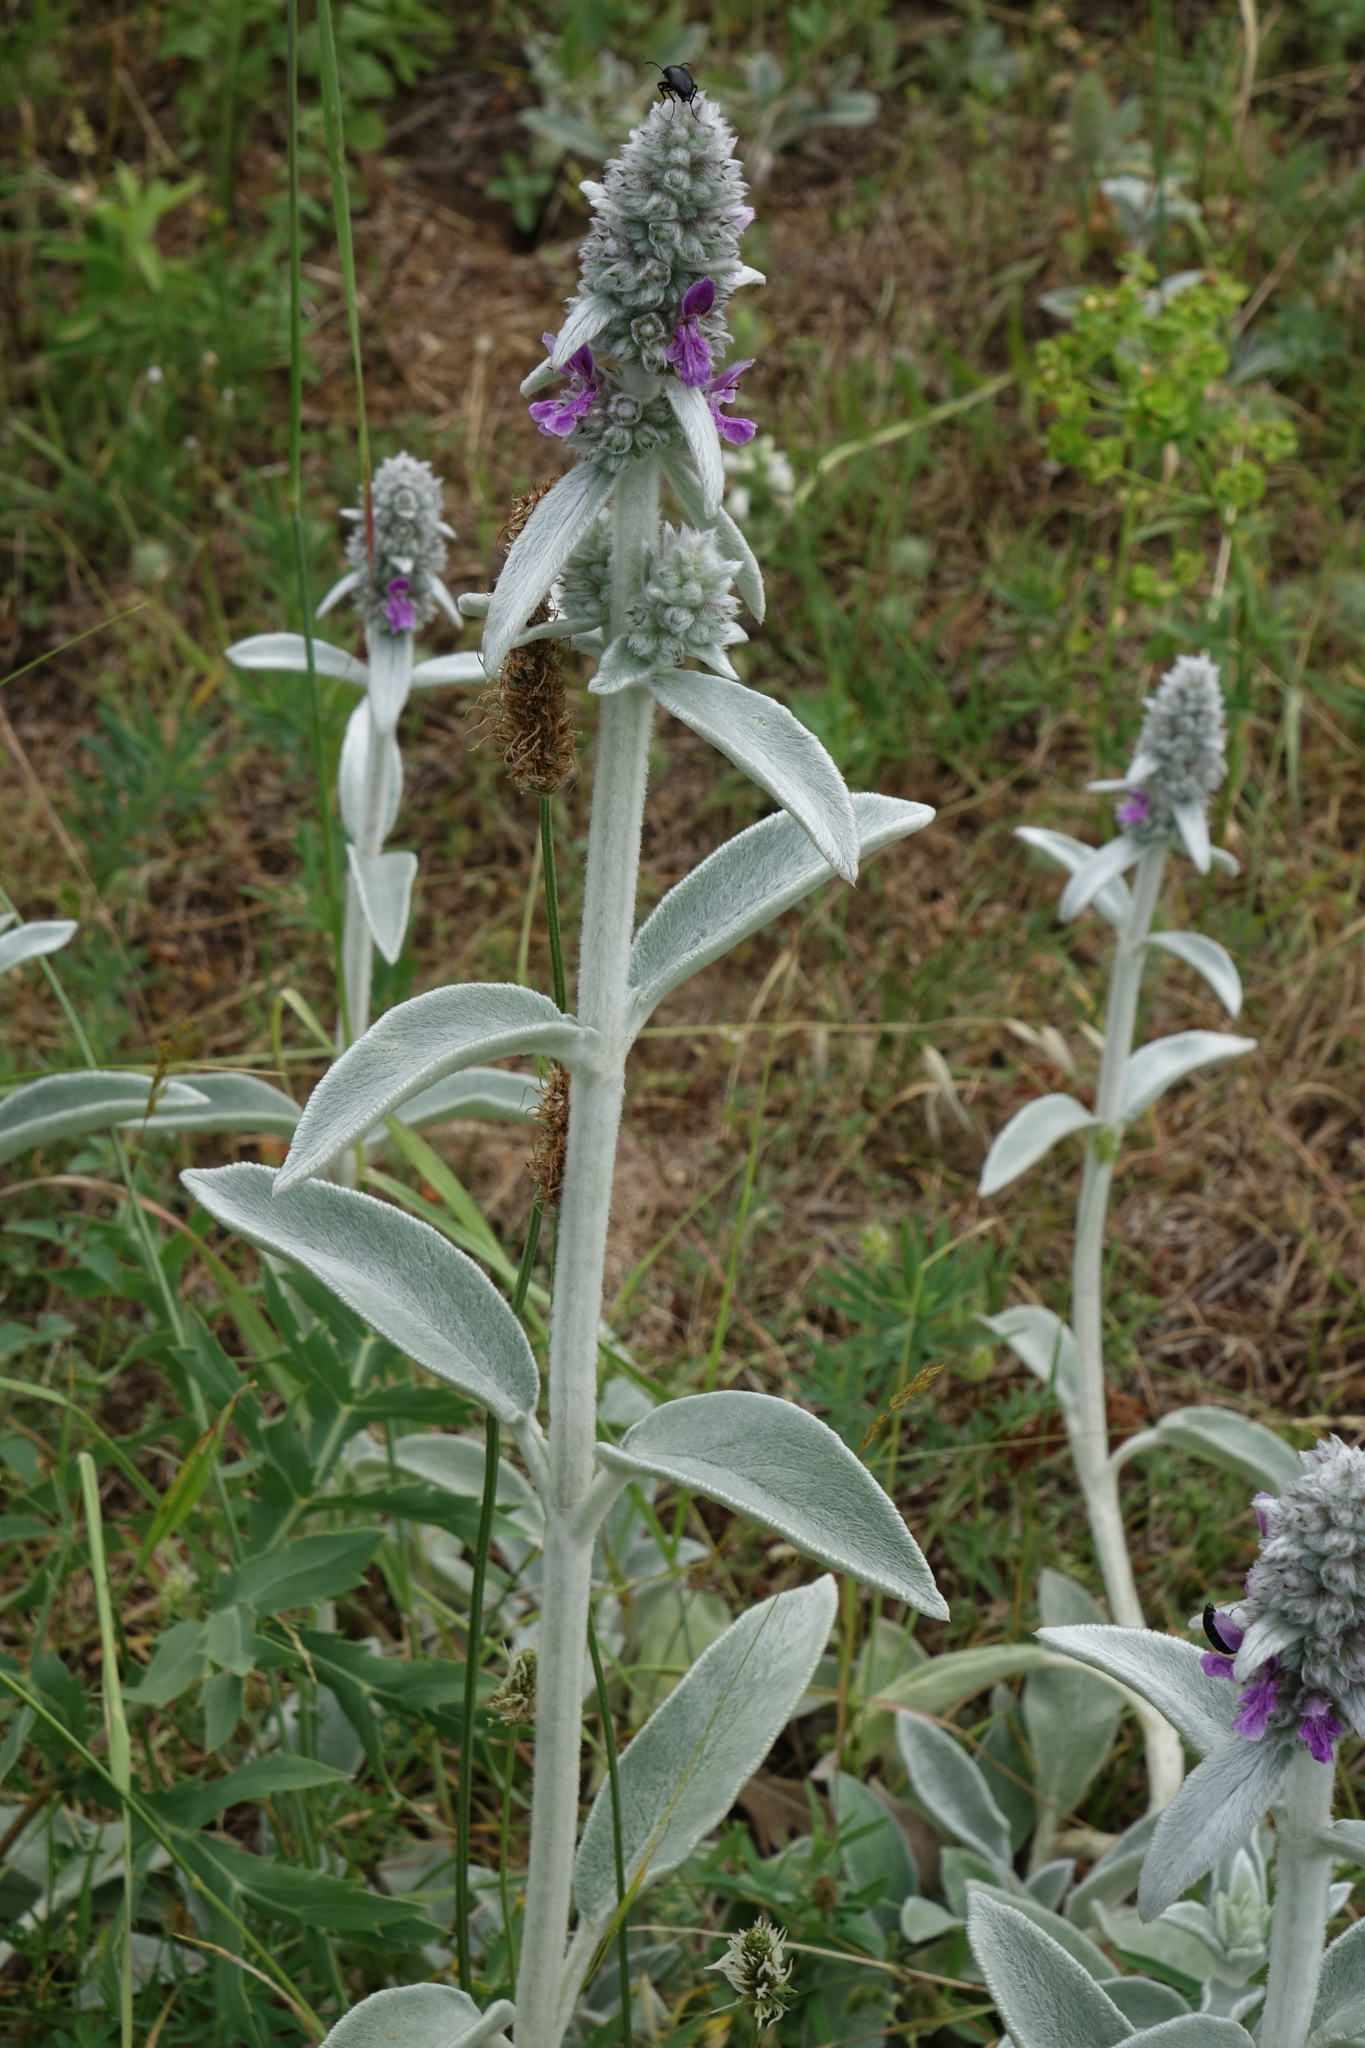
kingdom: Plantae
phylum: Tracheophyta
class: Magnoliopsida
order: Lamiales
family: Lamiaceae
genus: Stachys
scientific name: Stachys byzantina
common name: Lamb's-ear
